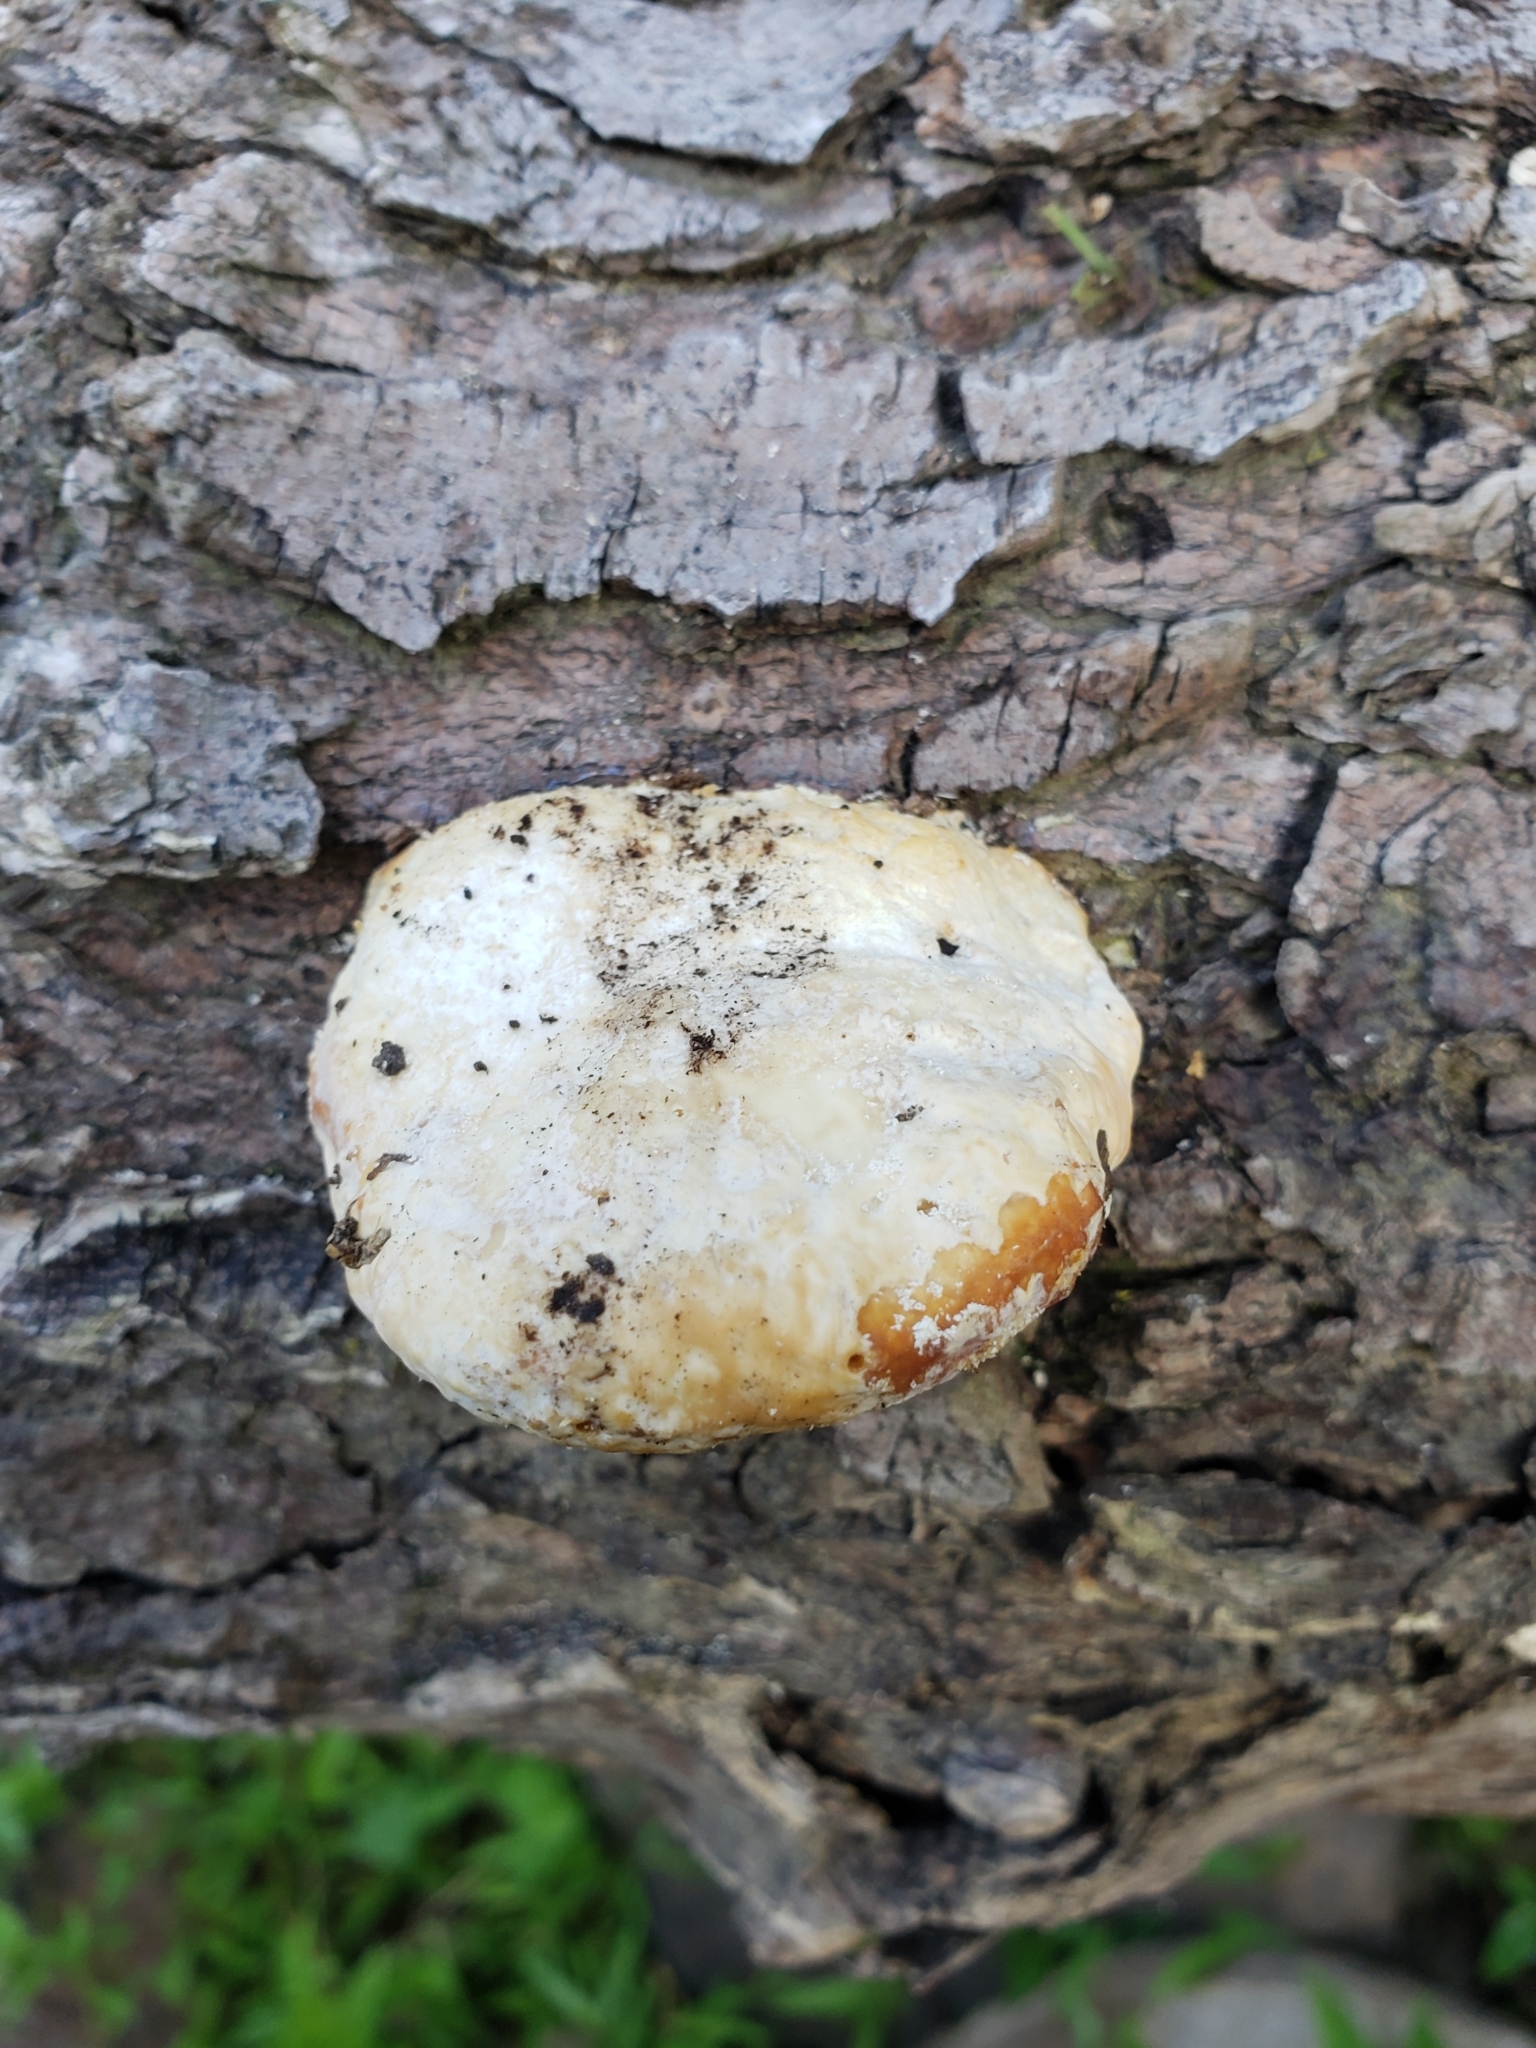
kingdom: Fungi
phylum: Basidiomycota
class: Agaricomycetes
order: Polyporales
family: Fomitopsidaceae
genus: Fomitopsis
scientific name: Fomitopsis
